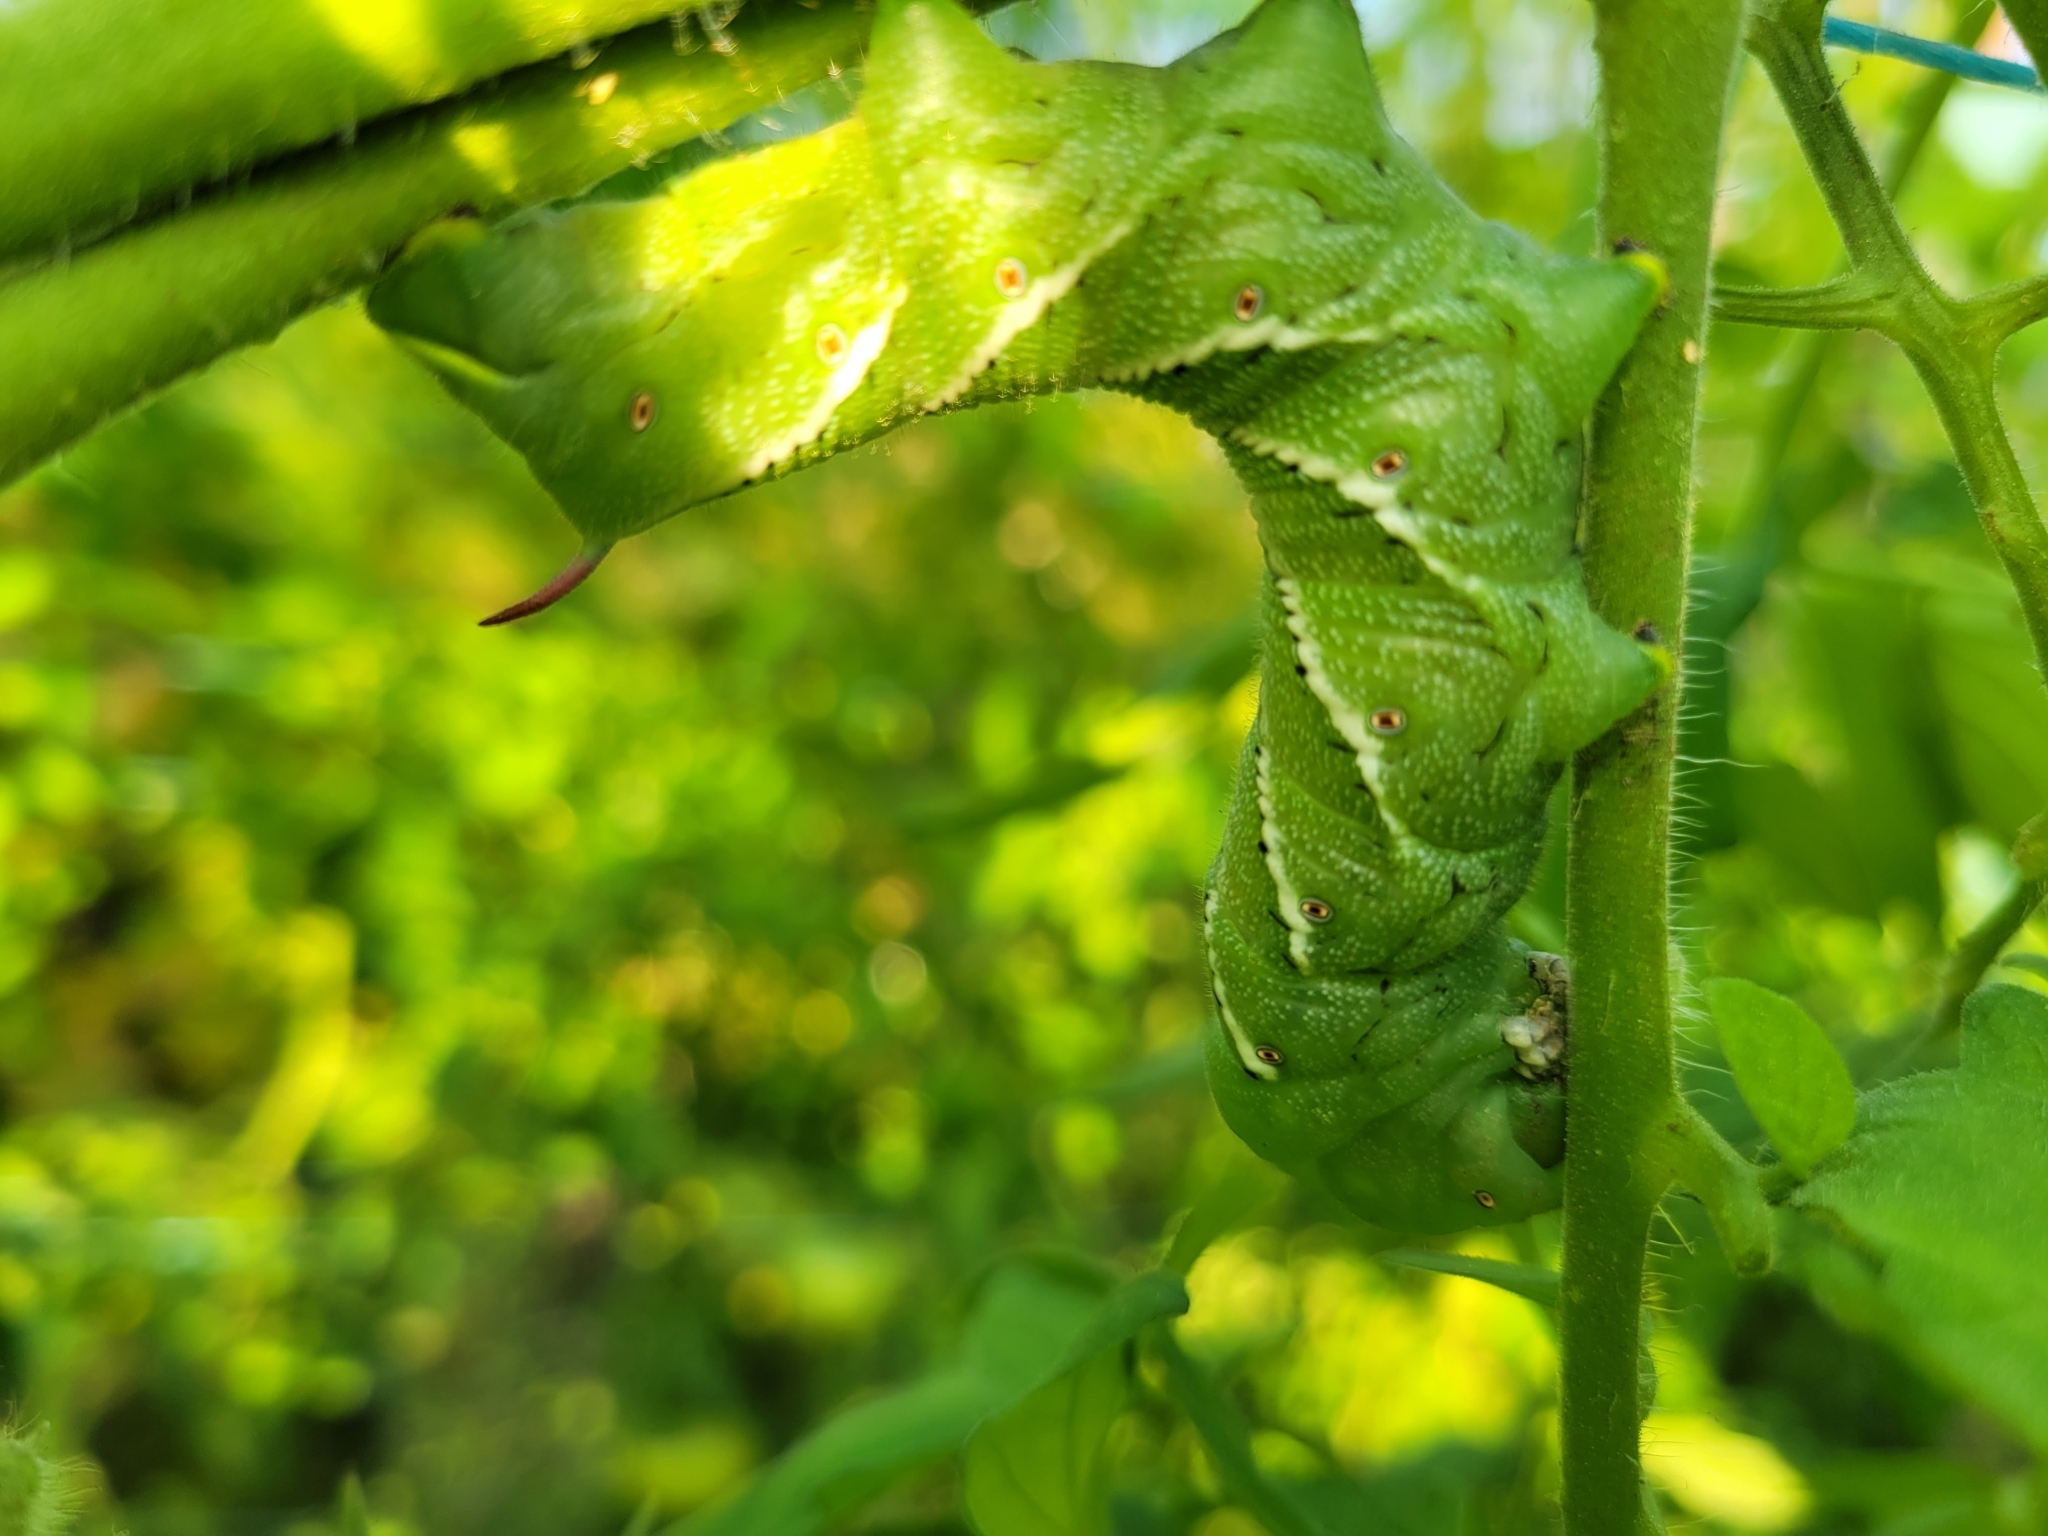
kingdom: Animalia
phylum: Arthropoda
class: Insecta
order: Lepidoptera
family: Sphingidae
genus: Manduca
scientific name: Manduca sexta
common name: Carolina sphinx
